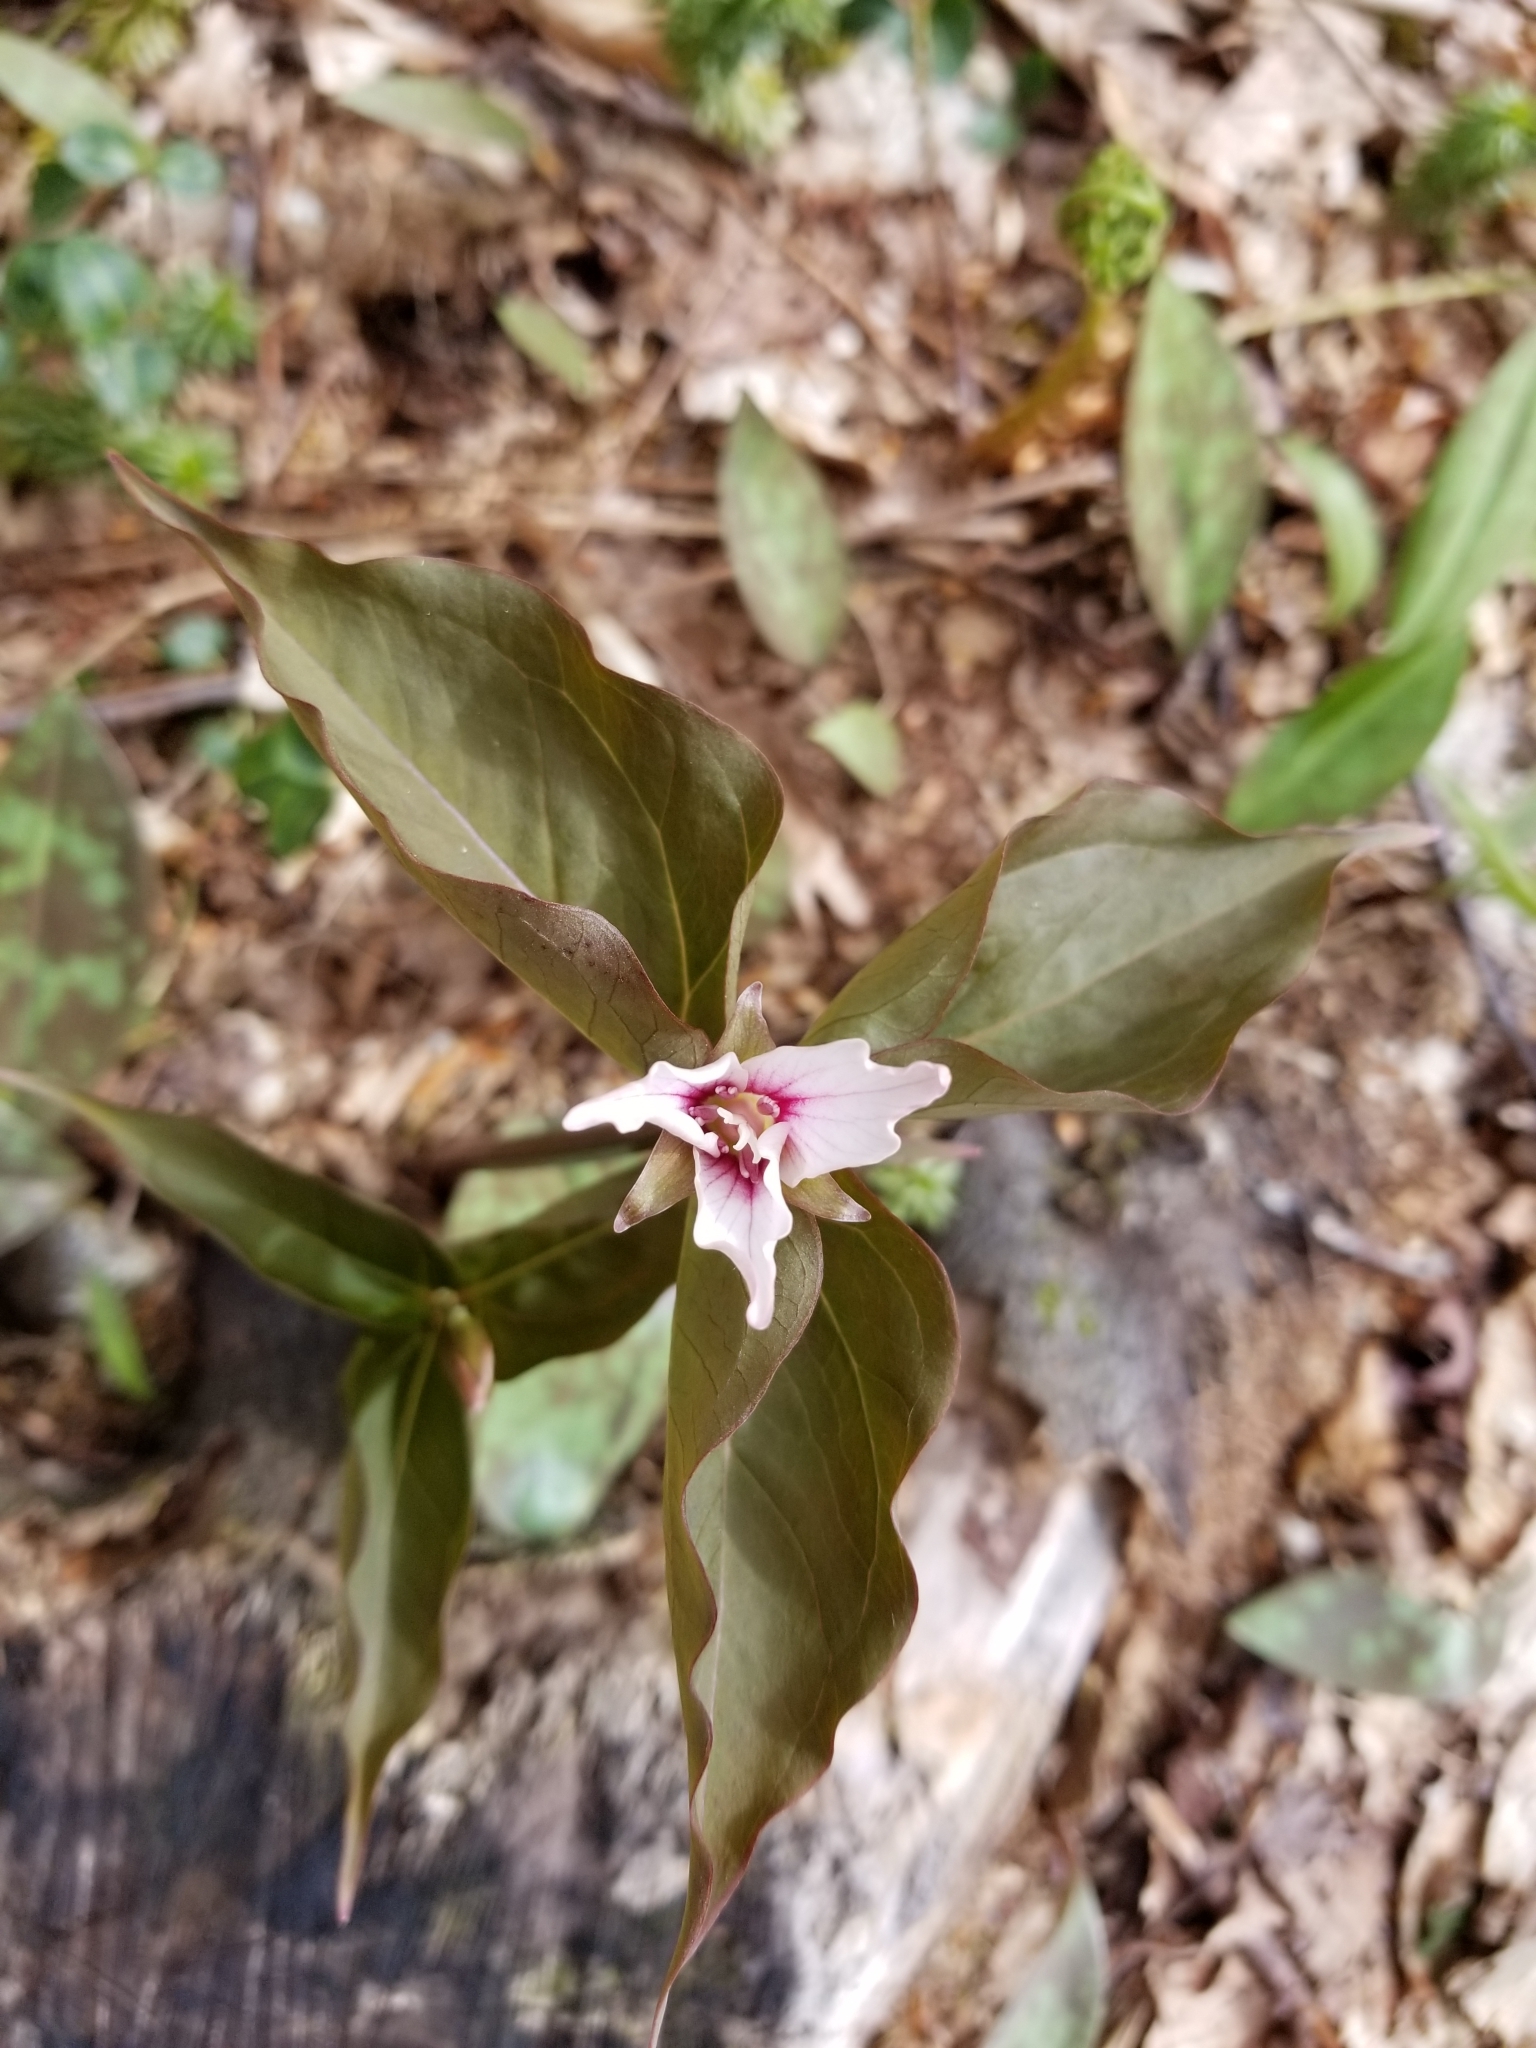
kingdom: Plantae
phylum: Tracheophyta
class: Liliopsida
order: Liliales
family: Melanthiaceae
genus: Trillium
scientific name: Trillium undulatum
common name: Paint trillium
